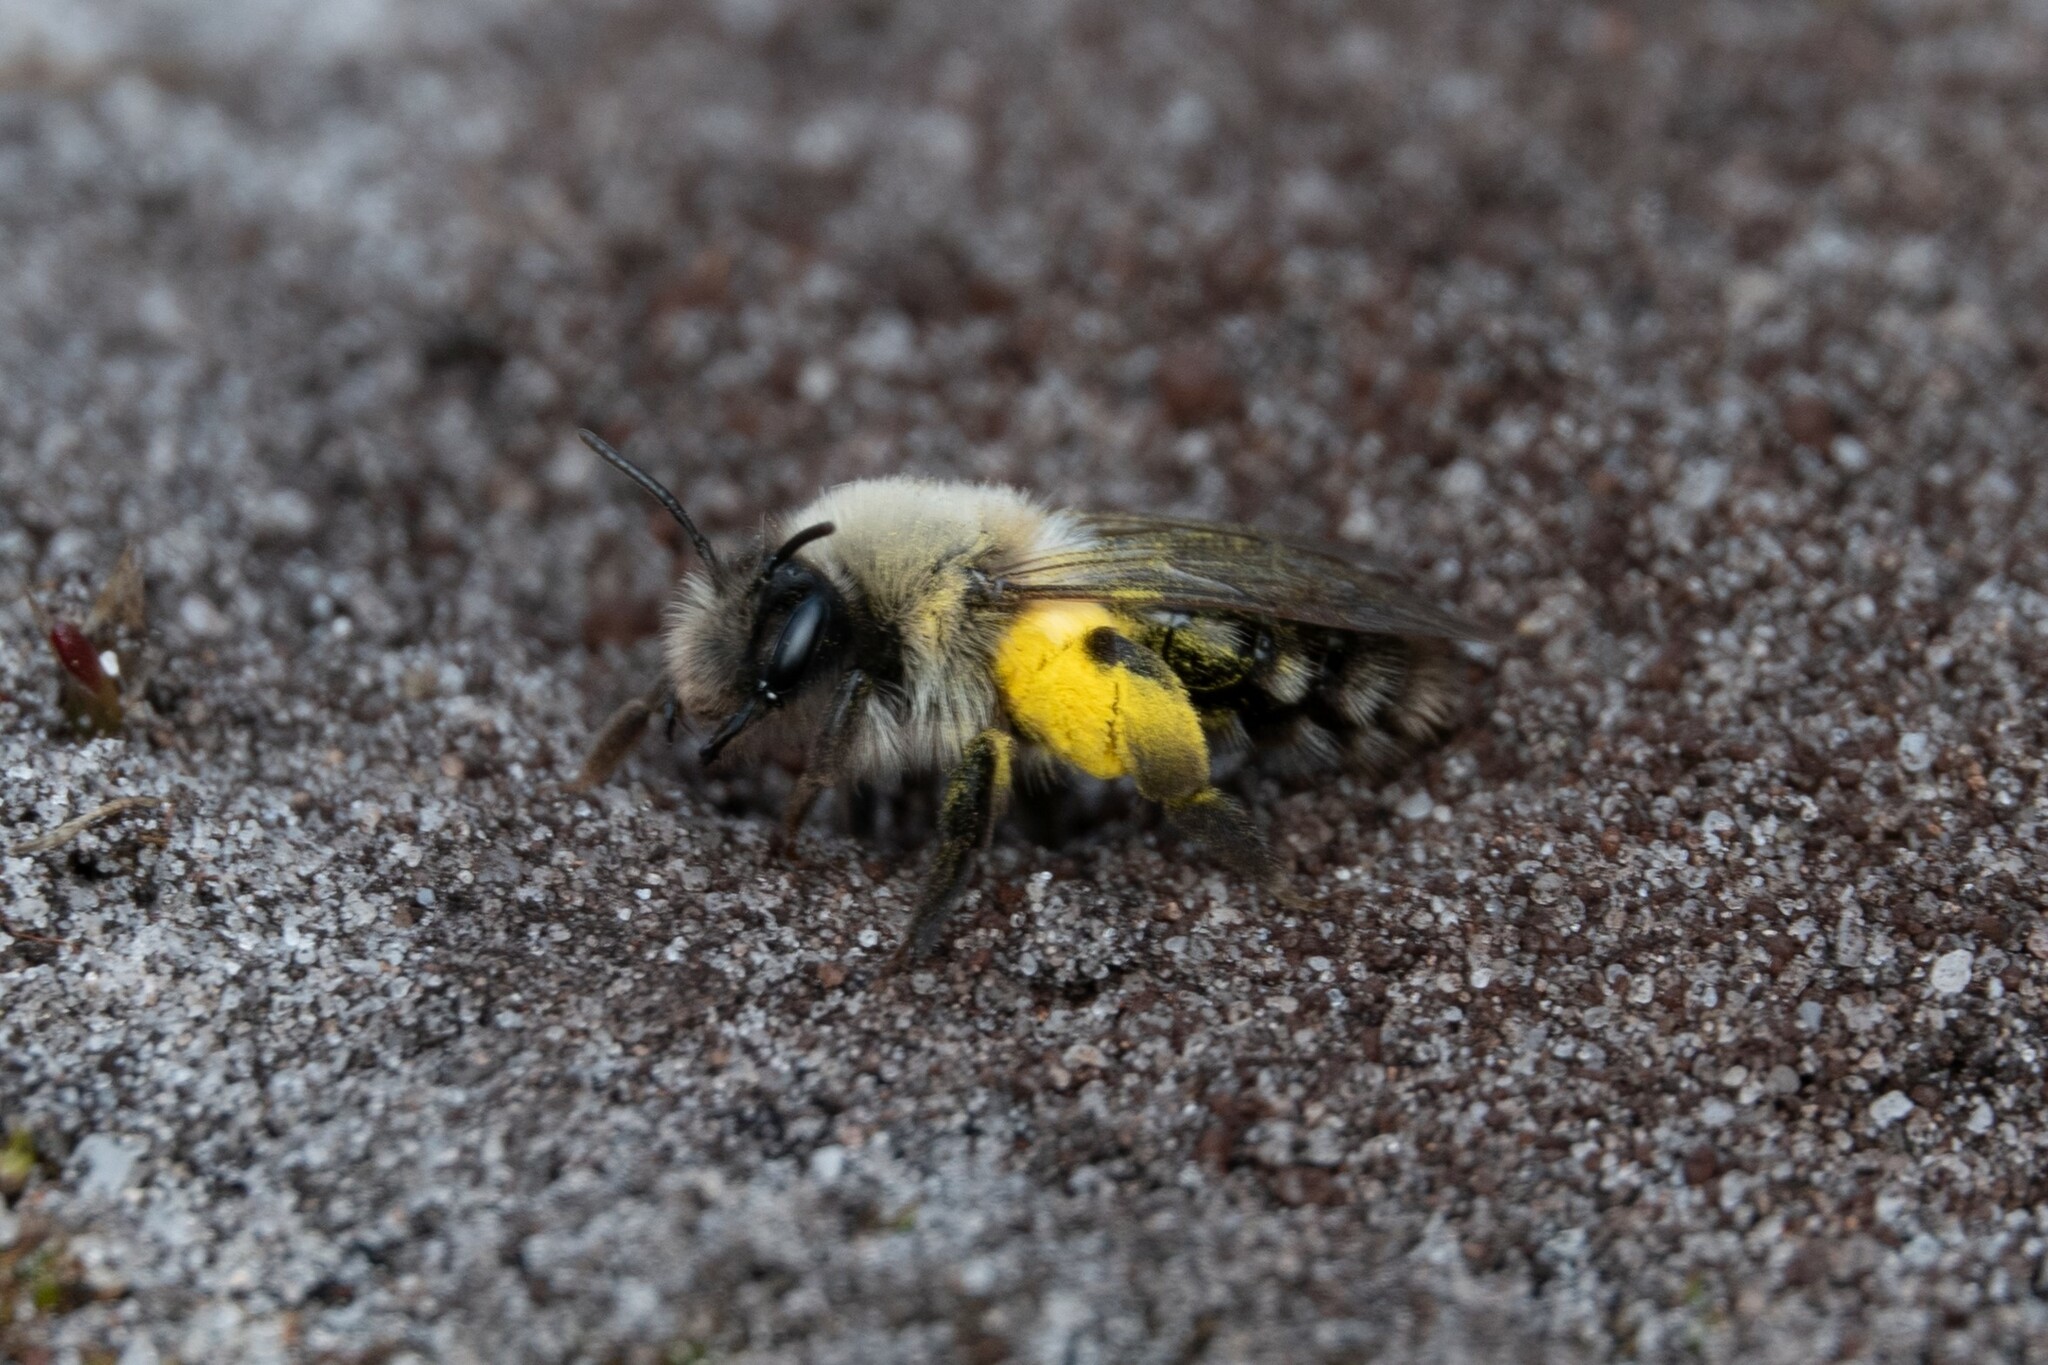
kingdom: Animalia
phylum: Arthropoda
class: Insecta
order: Hymenoptera
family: Andrenidae
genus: Andrena
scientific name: Andrena vaga
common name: Grey-backed mining bee
